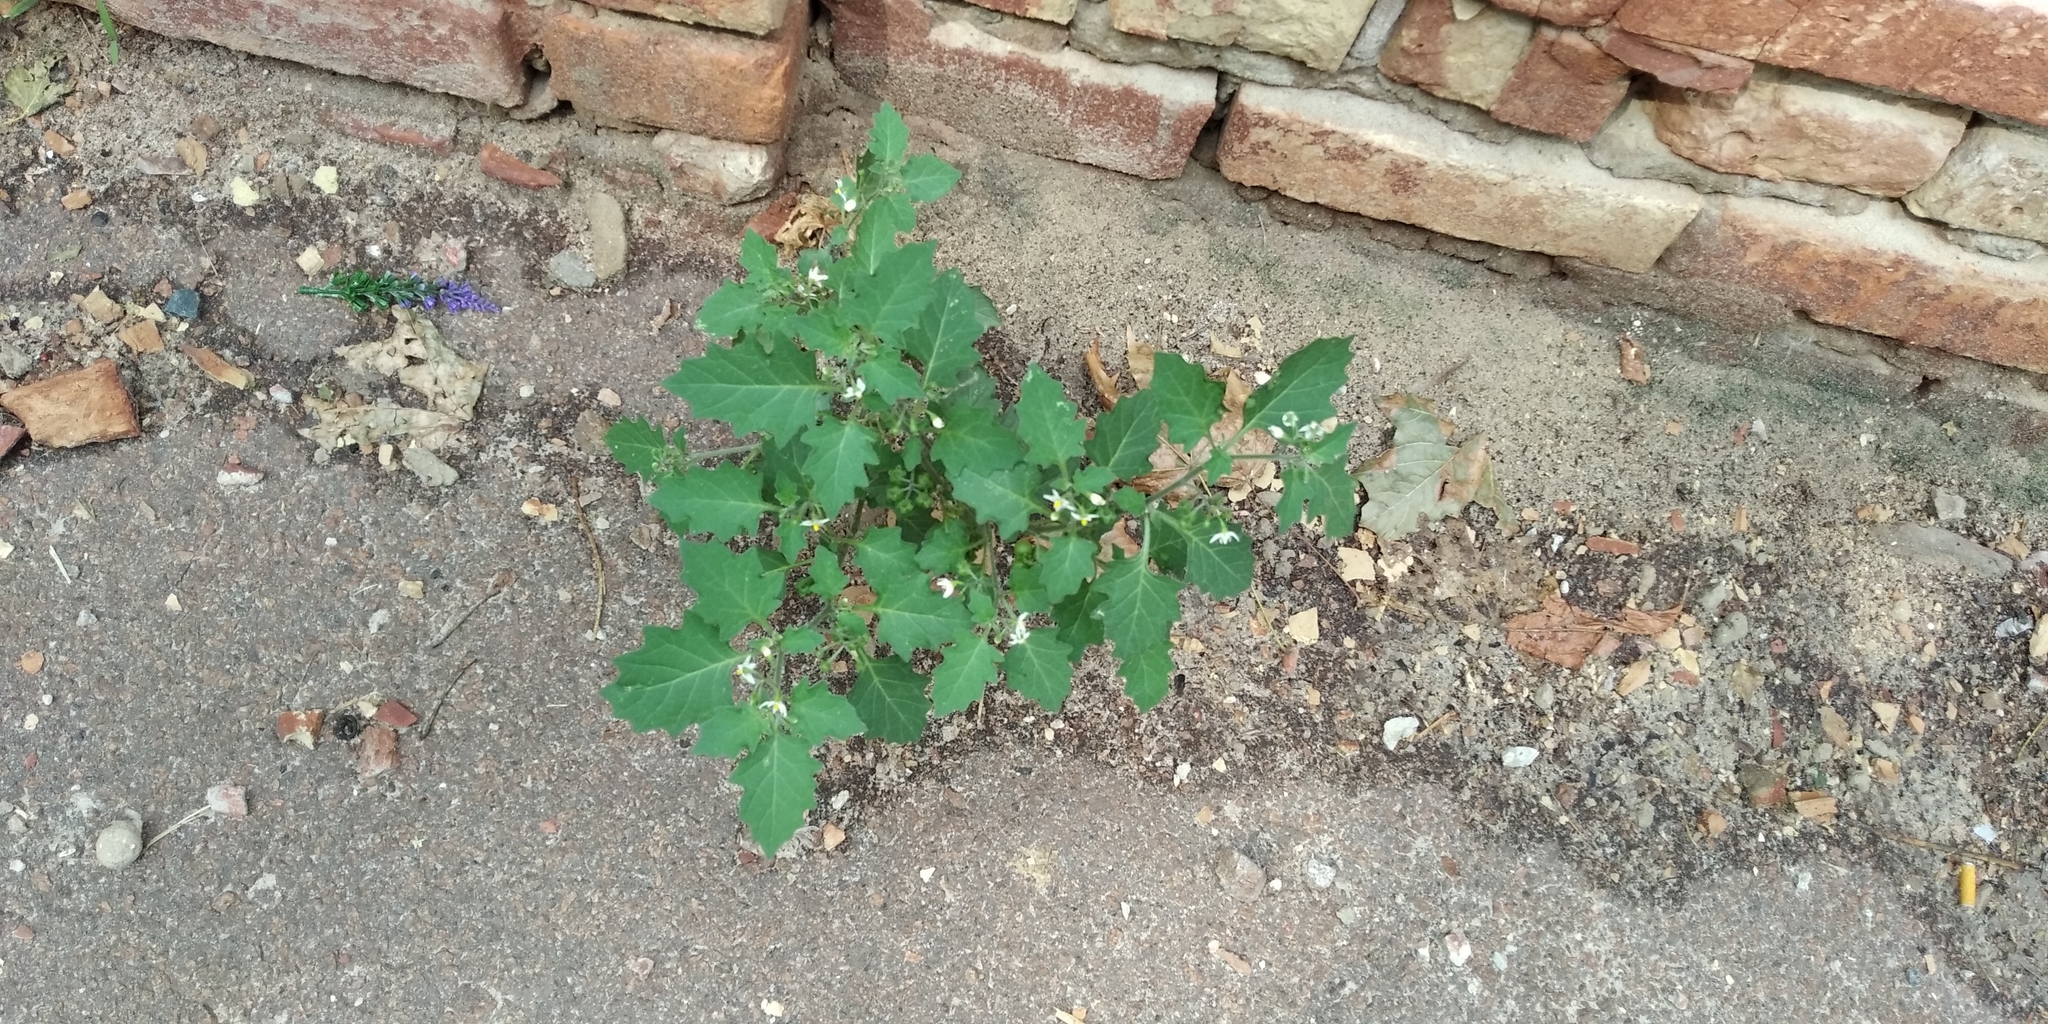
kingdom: Plantae
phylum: Tracheophyta
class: Magnoliopsida
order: Solanales
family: Solanaceae
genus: Solanum
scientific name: Solanum nigrum
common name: Black nightshade
